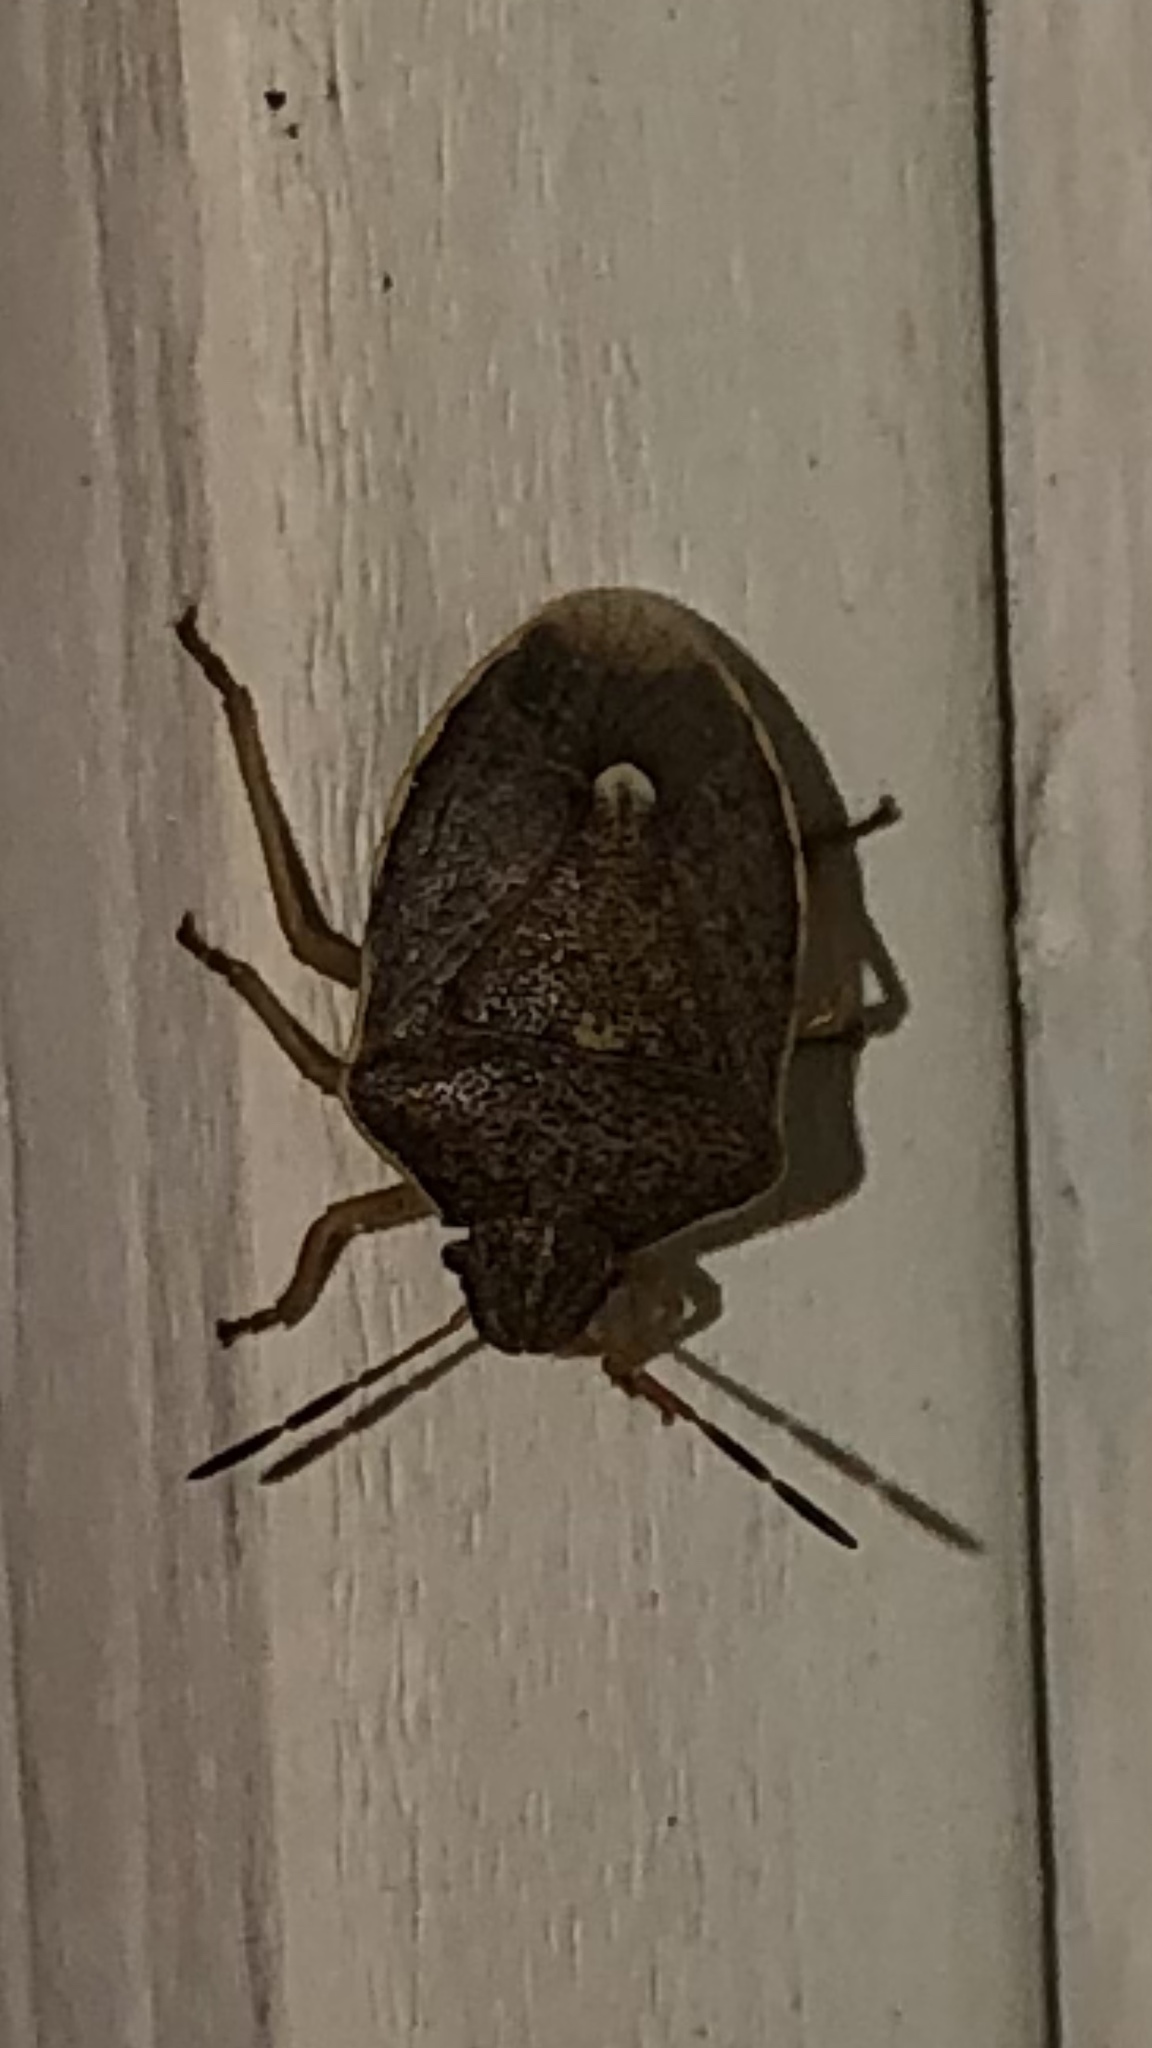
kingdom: Animalia
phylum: Arthropoda
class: Insecta
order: Hemiptera
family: Pentatomidae
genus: Holcostethus
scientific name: Holcostethus limbolarius
